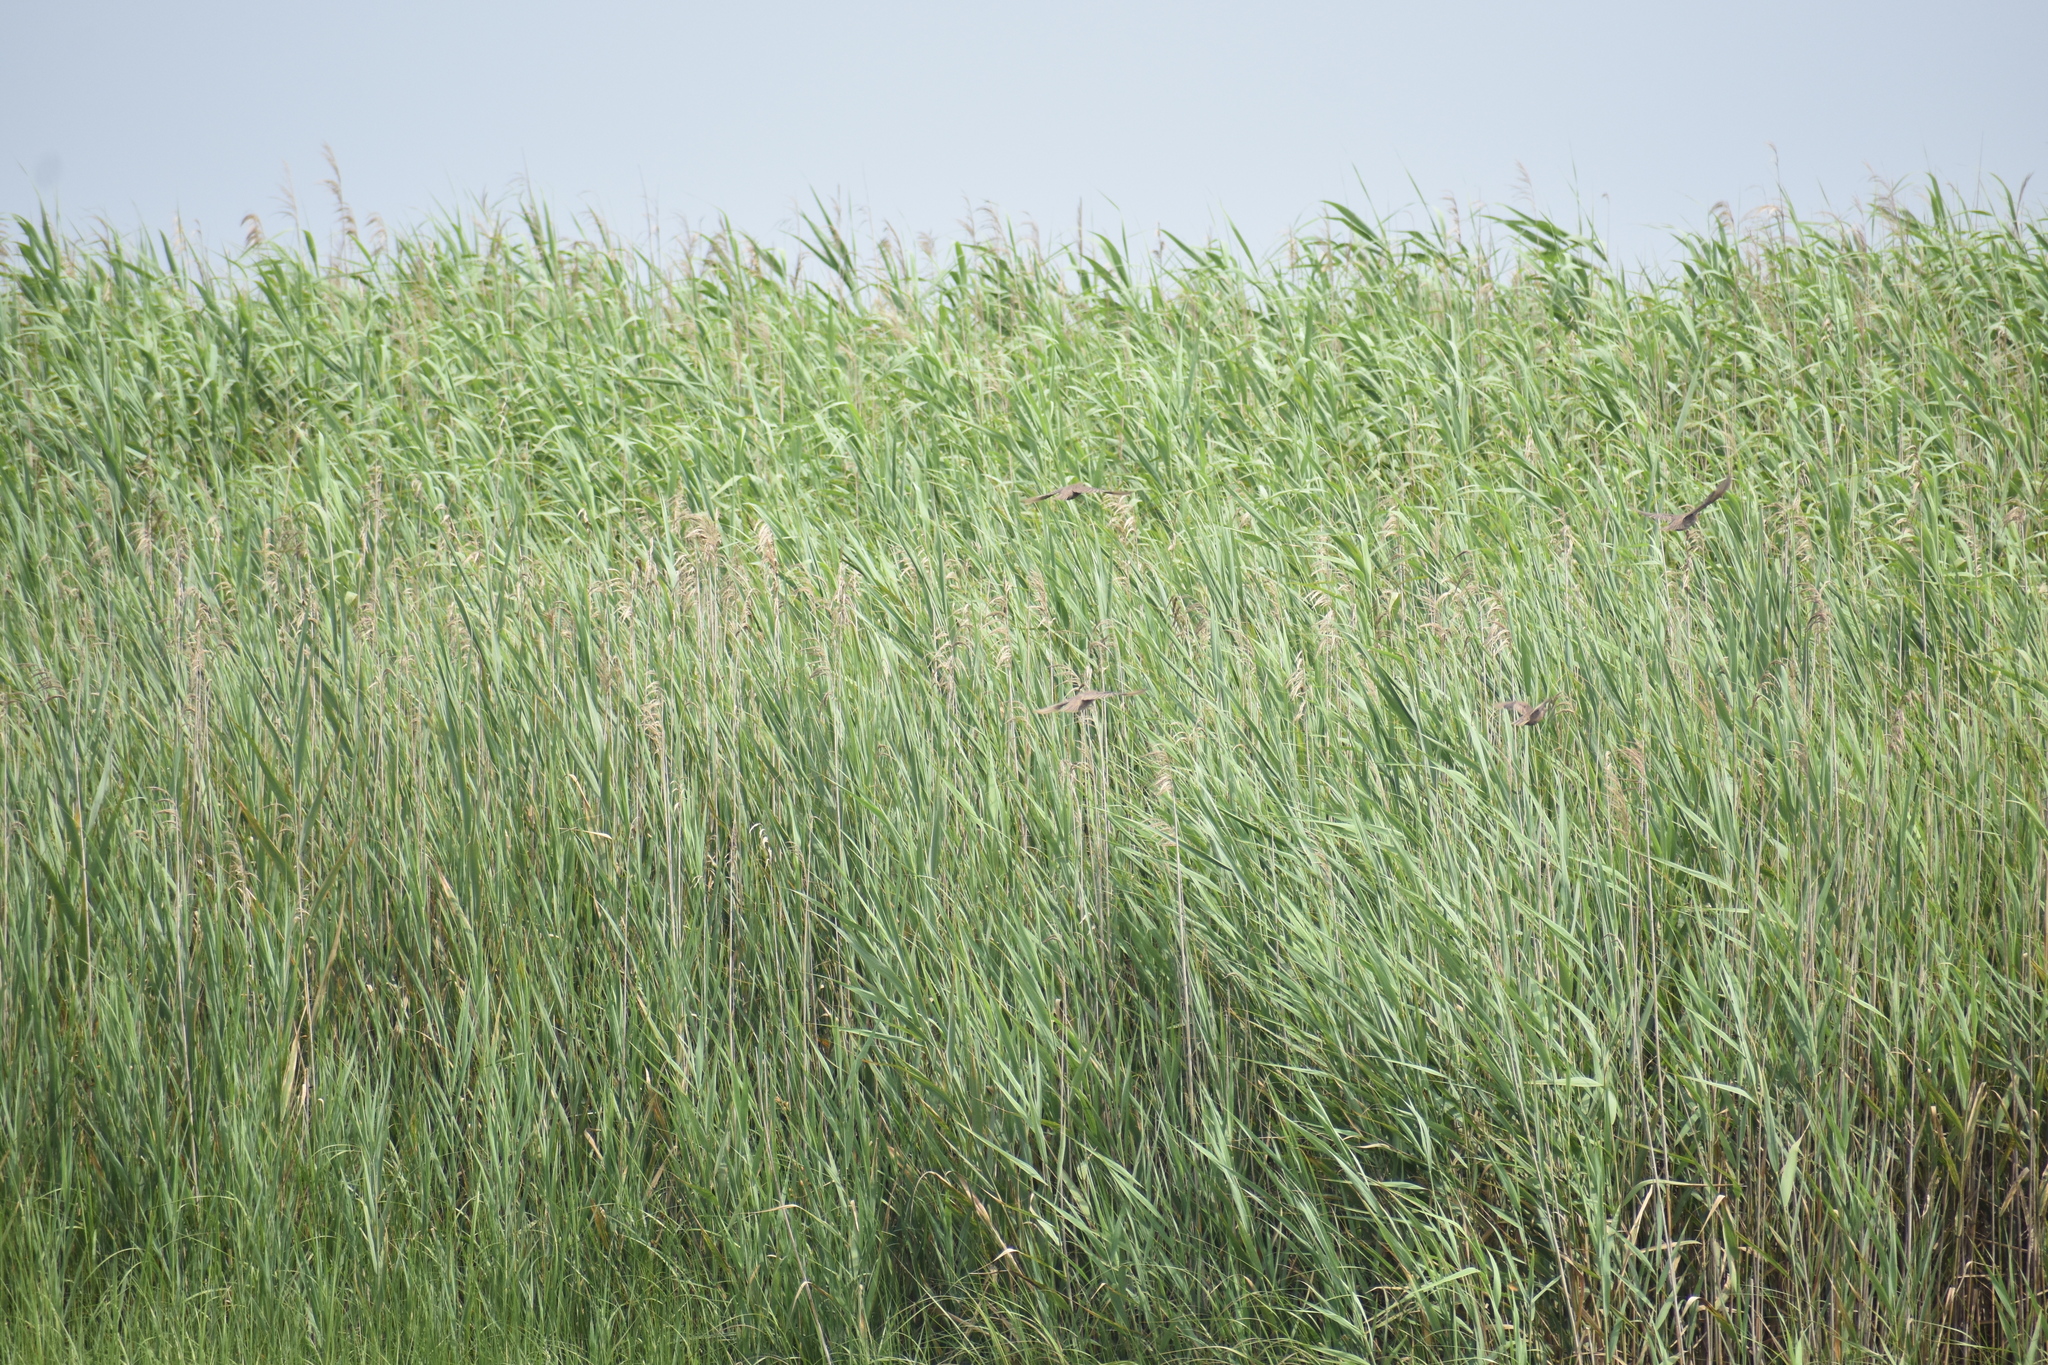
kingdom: Animalia
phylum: Chordata
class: Aves
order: Passeriformes
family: Sturnidae
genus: Sturnus
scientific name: Sturnus vulgaris
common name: Common starling
